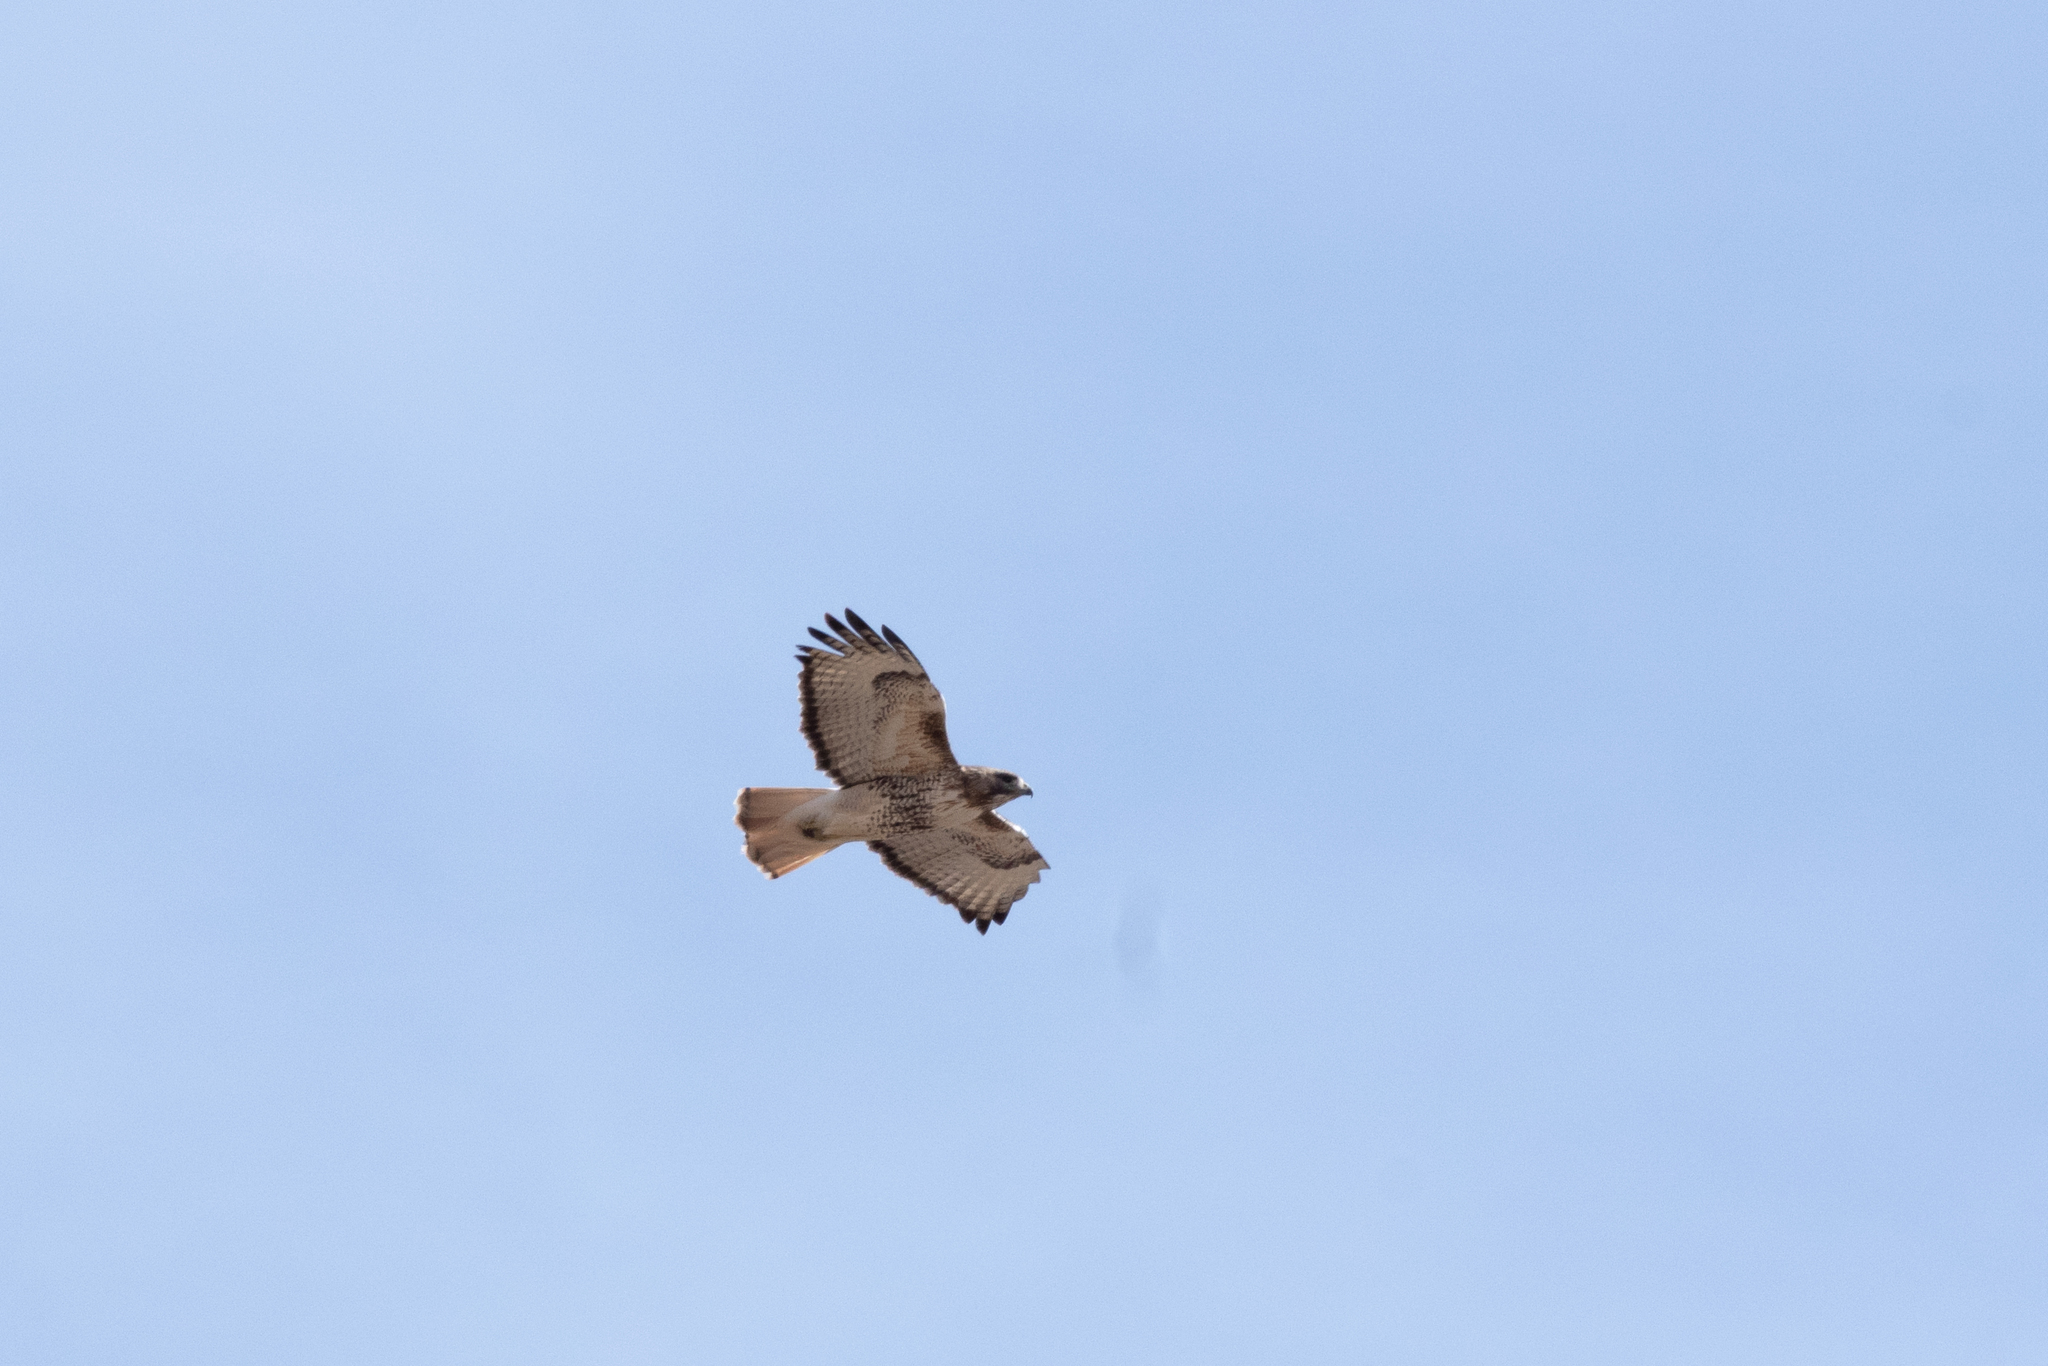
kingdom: Animalia
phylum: Chordata
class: Aves
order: Accipitriformes
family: Accipitridae
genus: Buteo
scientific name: Buteo jamaicensis
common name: Red-tailed hawk
